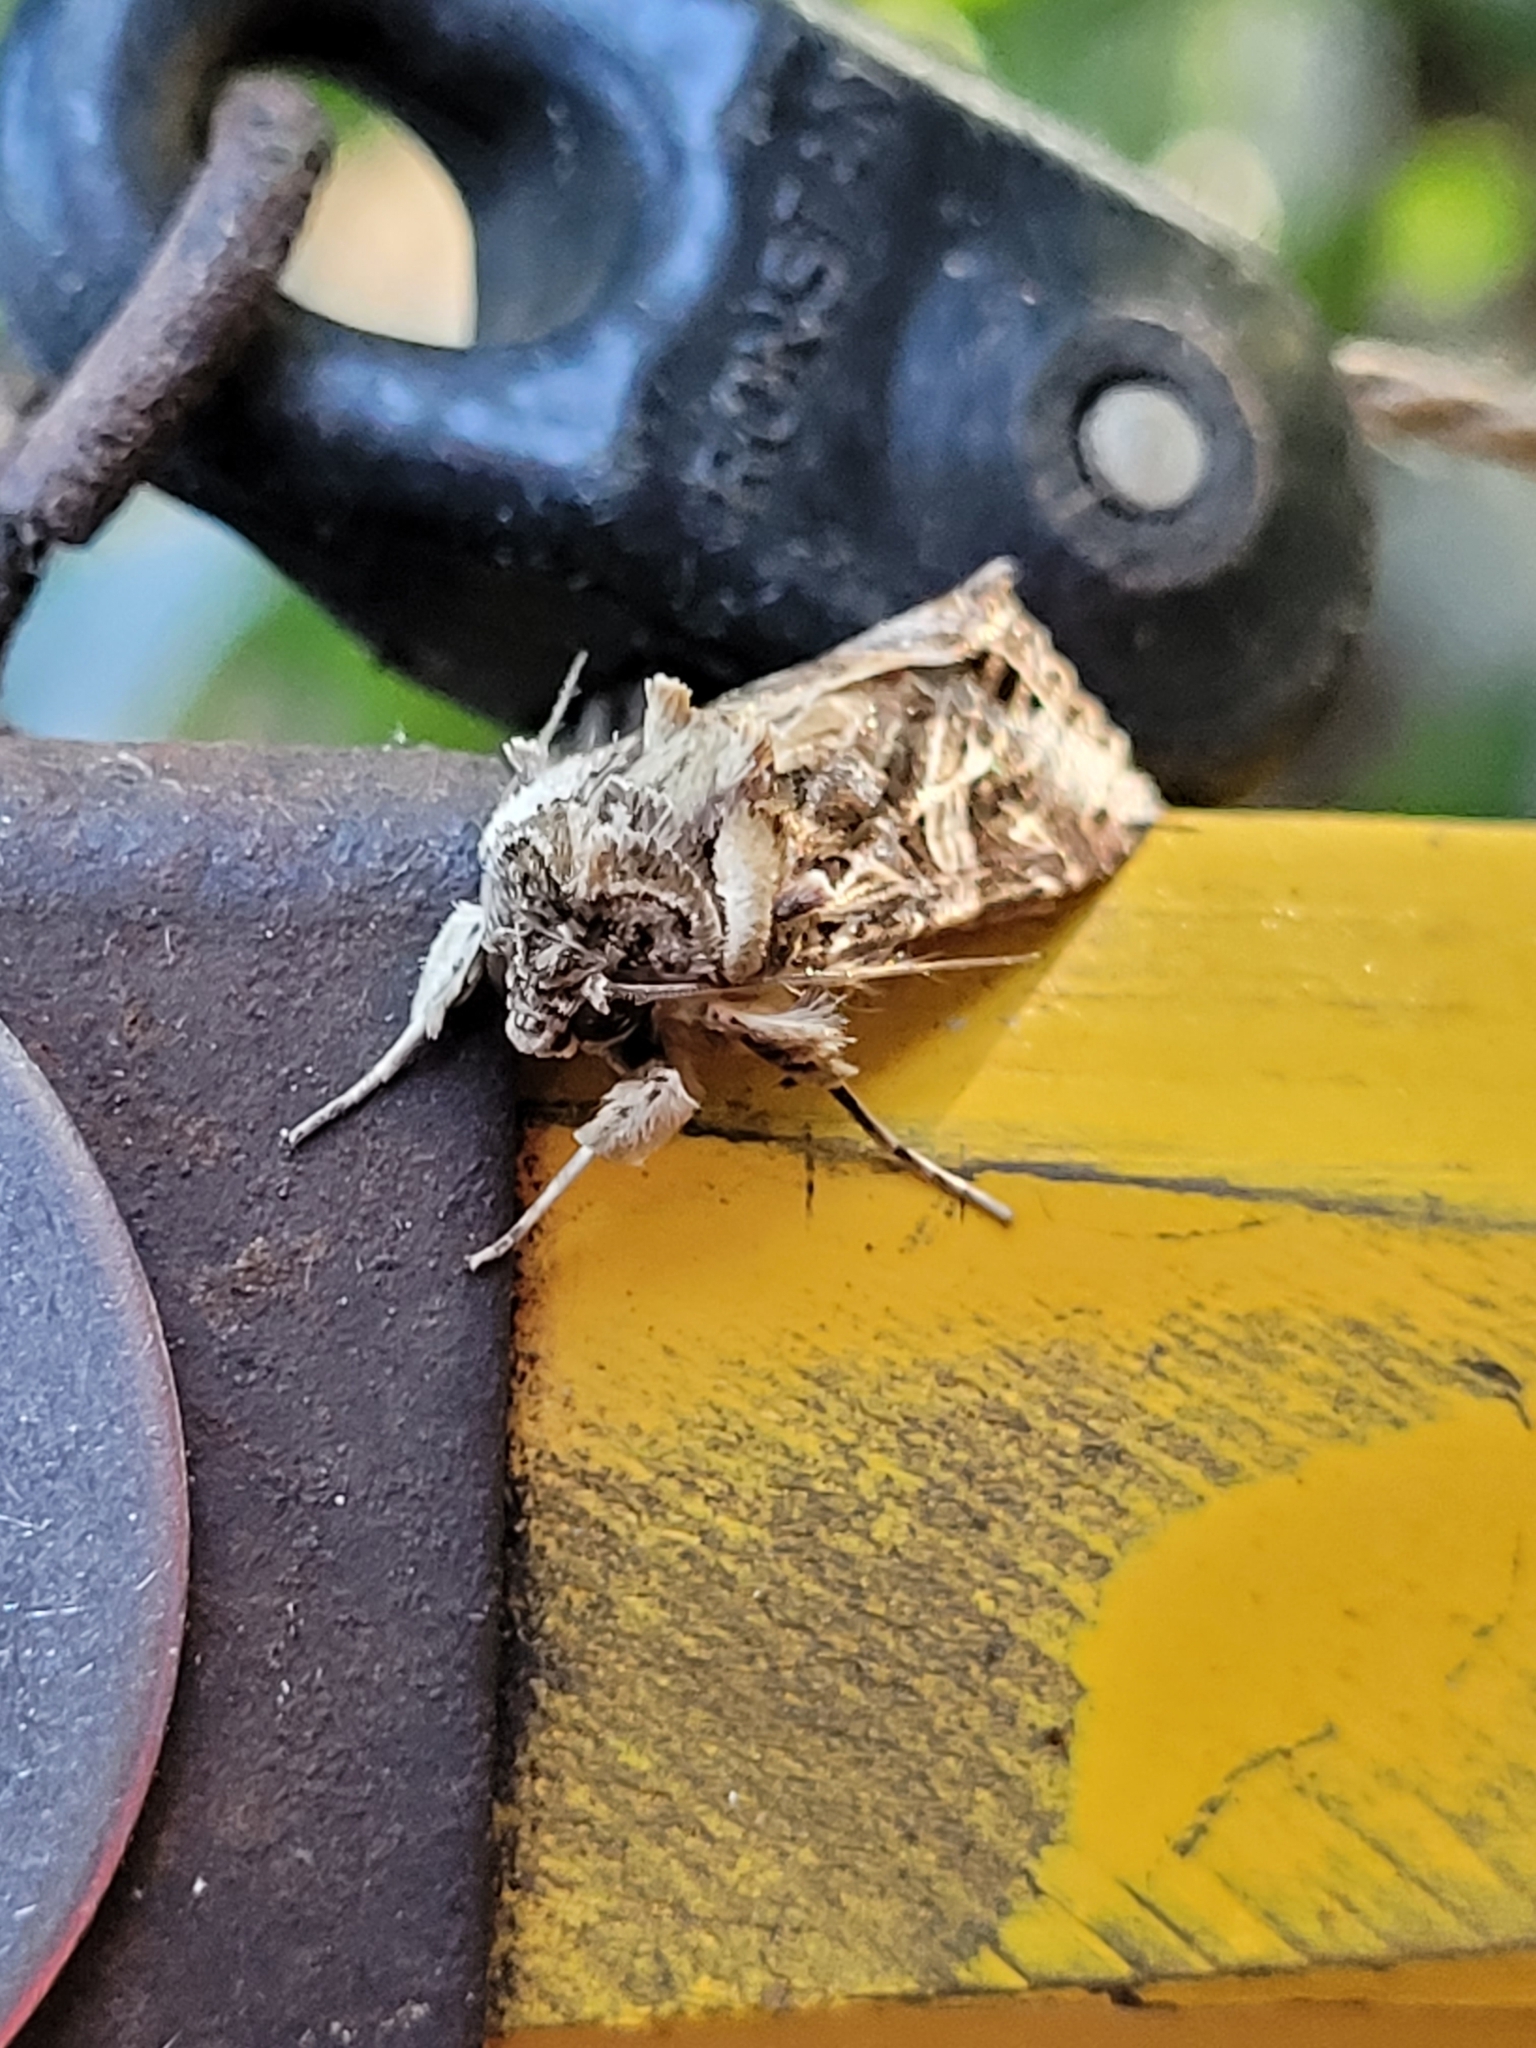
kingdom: Animalia
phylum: Arthropoda
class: Insecta
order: Lepidoptera
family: Noctuidae
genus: Spodoptera
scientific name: Spodoptera litura
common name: Asian cotton leafworm
